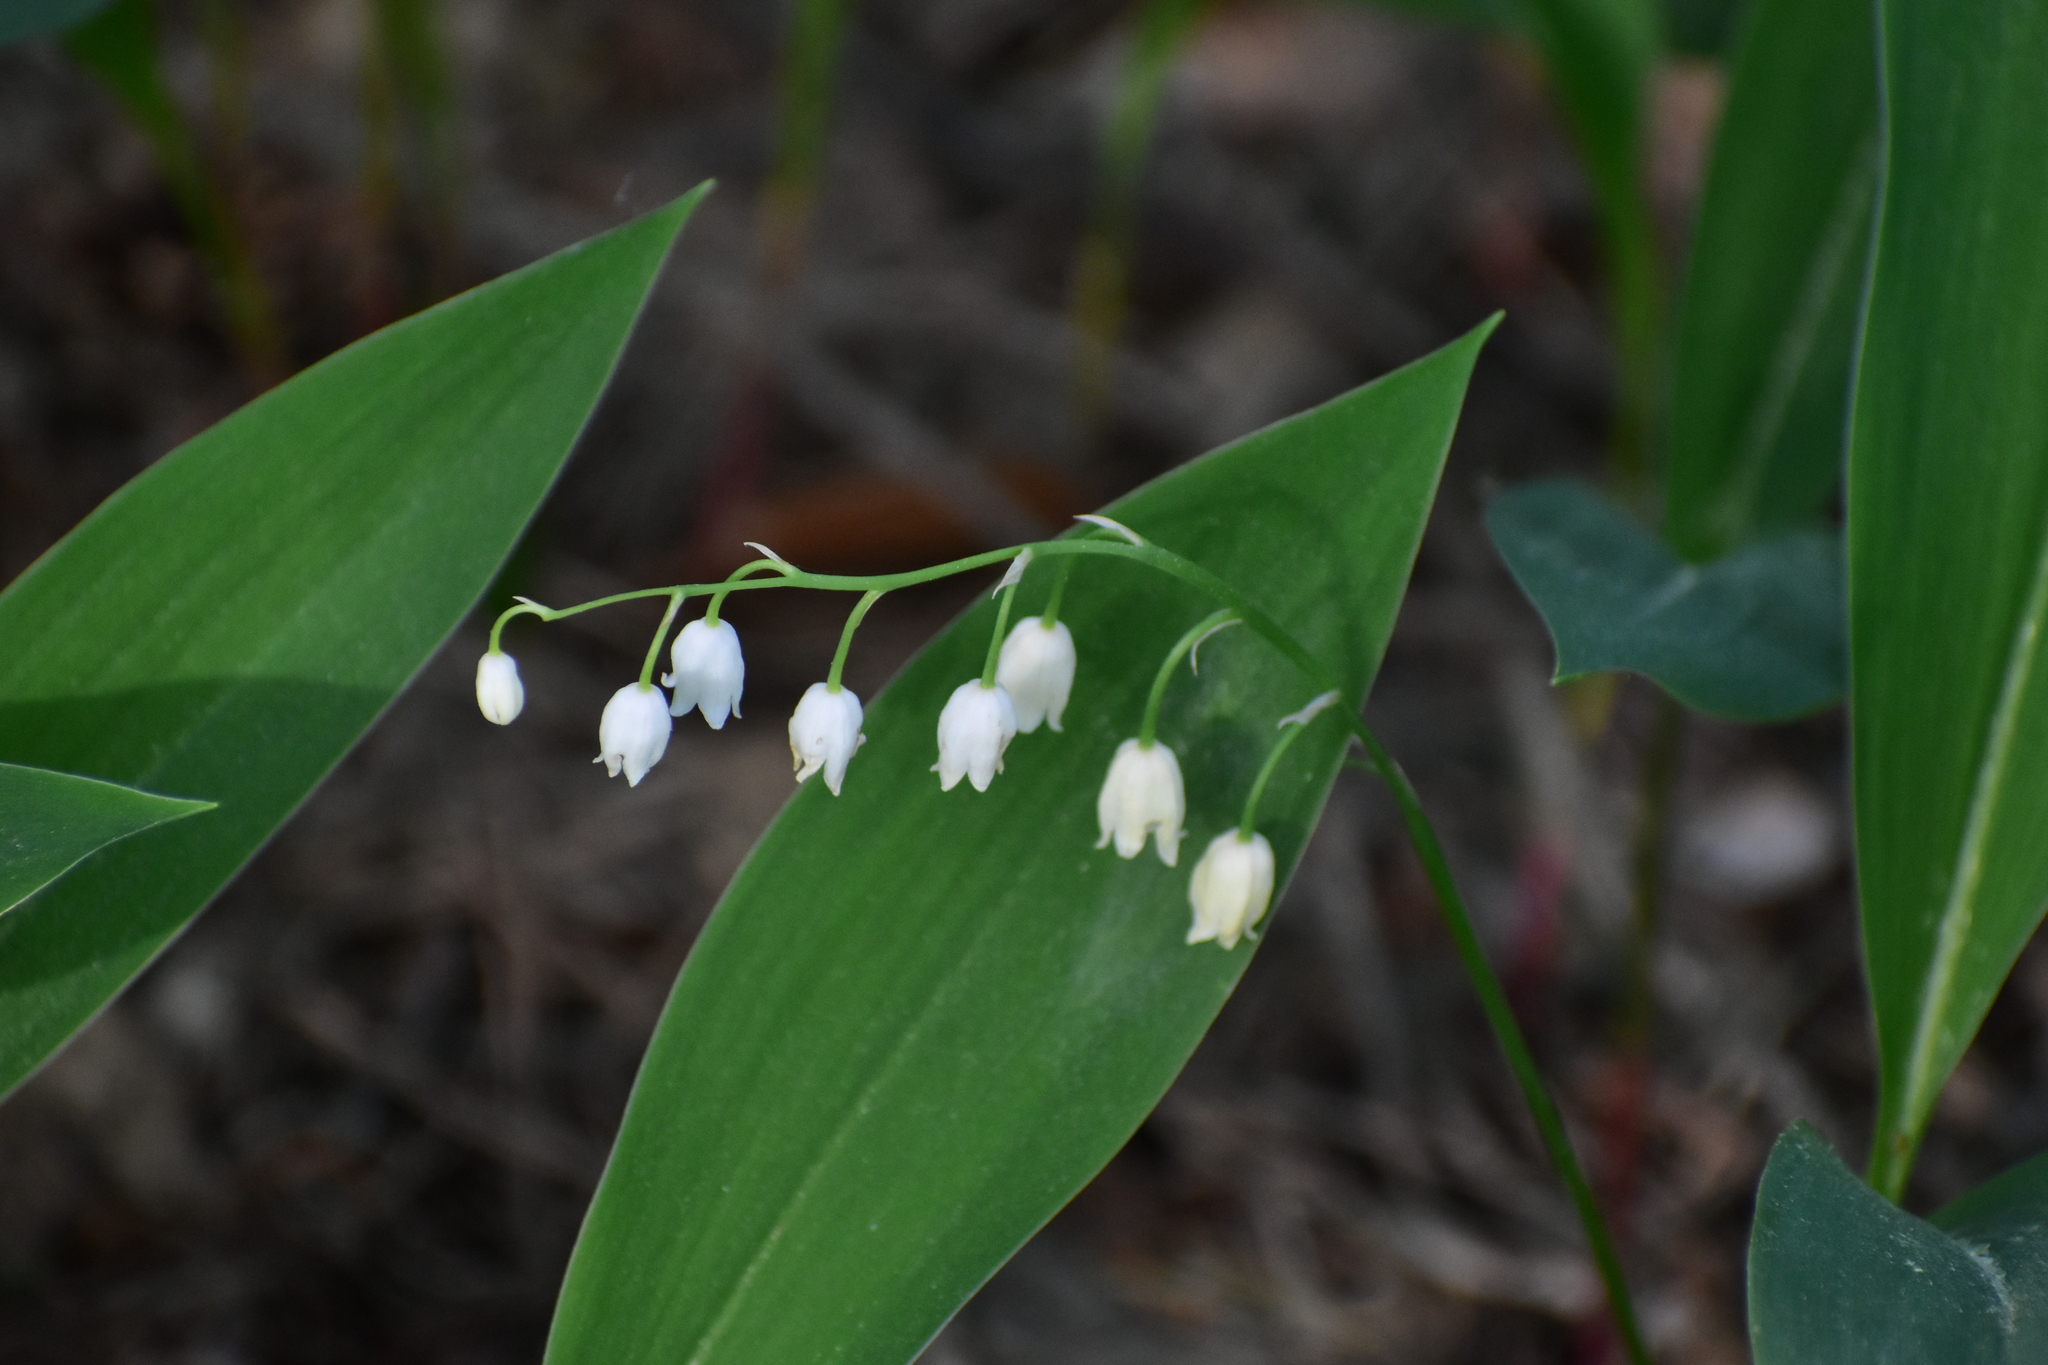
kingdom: Plantae
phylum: Tracheophyta
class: Liliopsida
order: Asparagales
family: Asparagaceae
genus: Convallaria
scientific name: Convallaria majalis
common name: Lily-of-the-valley
